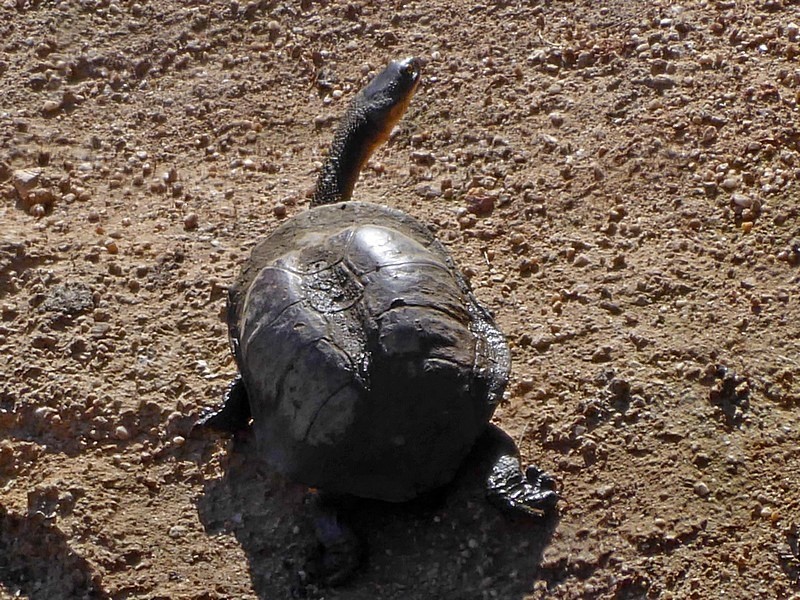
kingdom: Animalia
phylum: Chordata
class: Testudines
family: Chelidae
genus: Chelodina
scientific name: Chelodina longicollis
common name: Eastern snake-necked turtle
